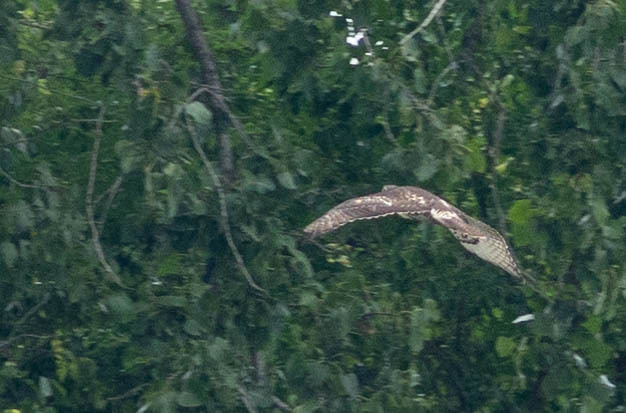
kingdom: Animalia
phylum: Chordata
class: Aves
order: Accipitriformes
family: Accipitridae
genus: Buteo
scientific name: Buteo jamaicensis
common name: Red-tailed hawk
